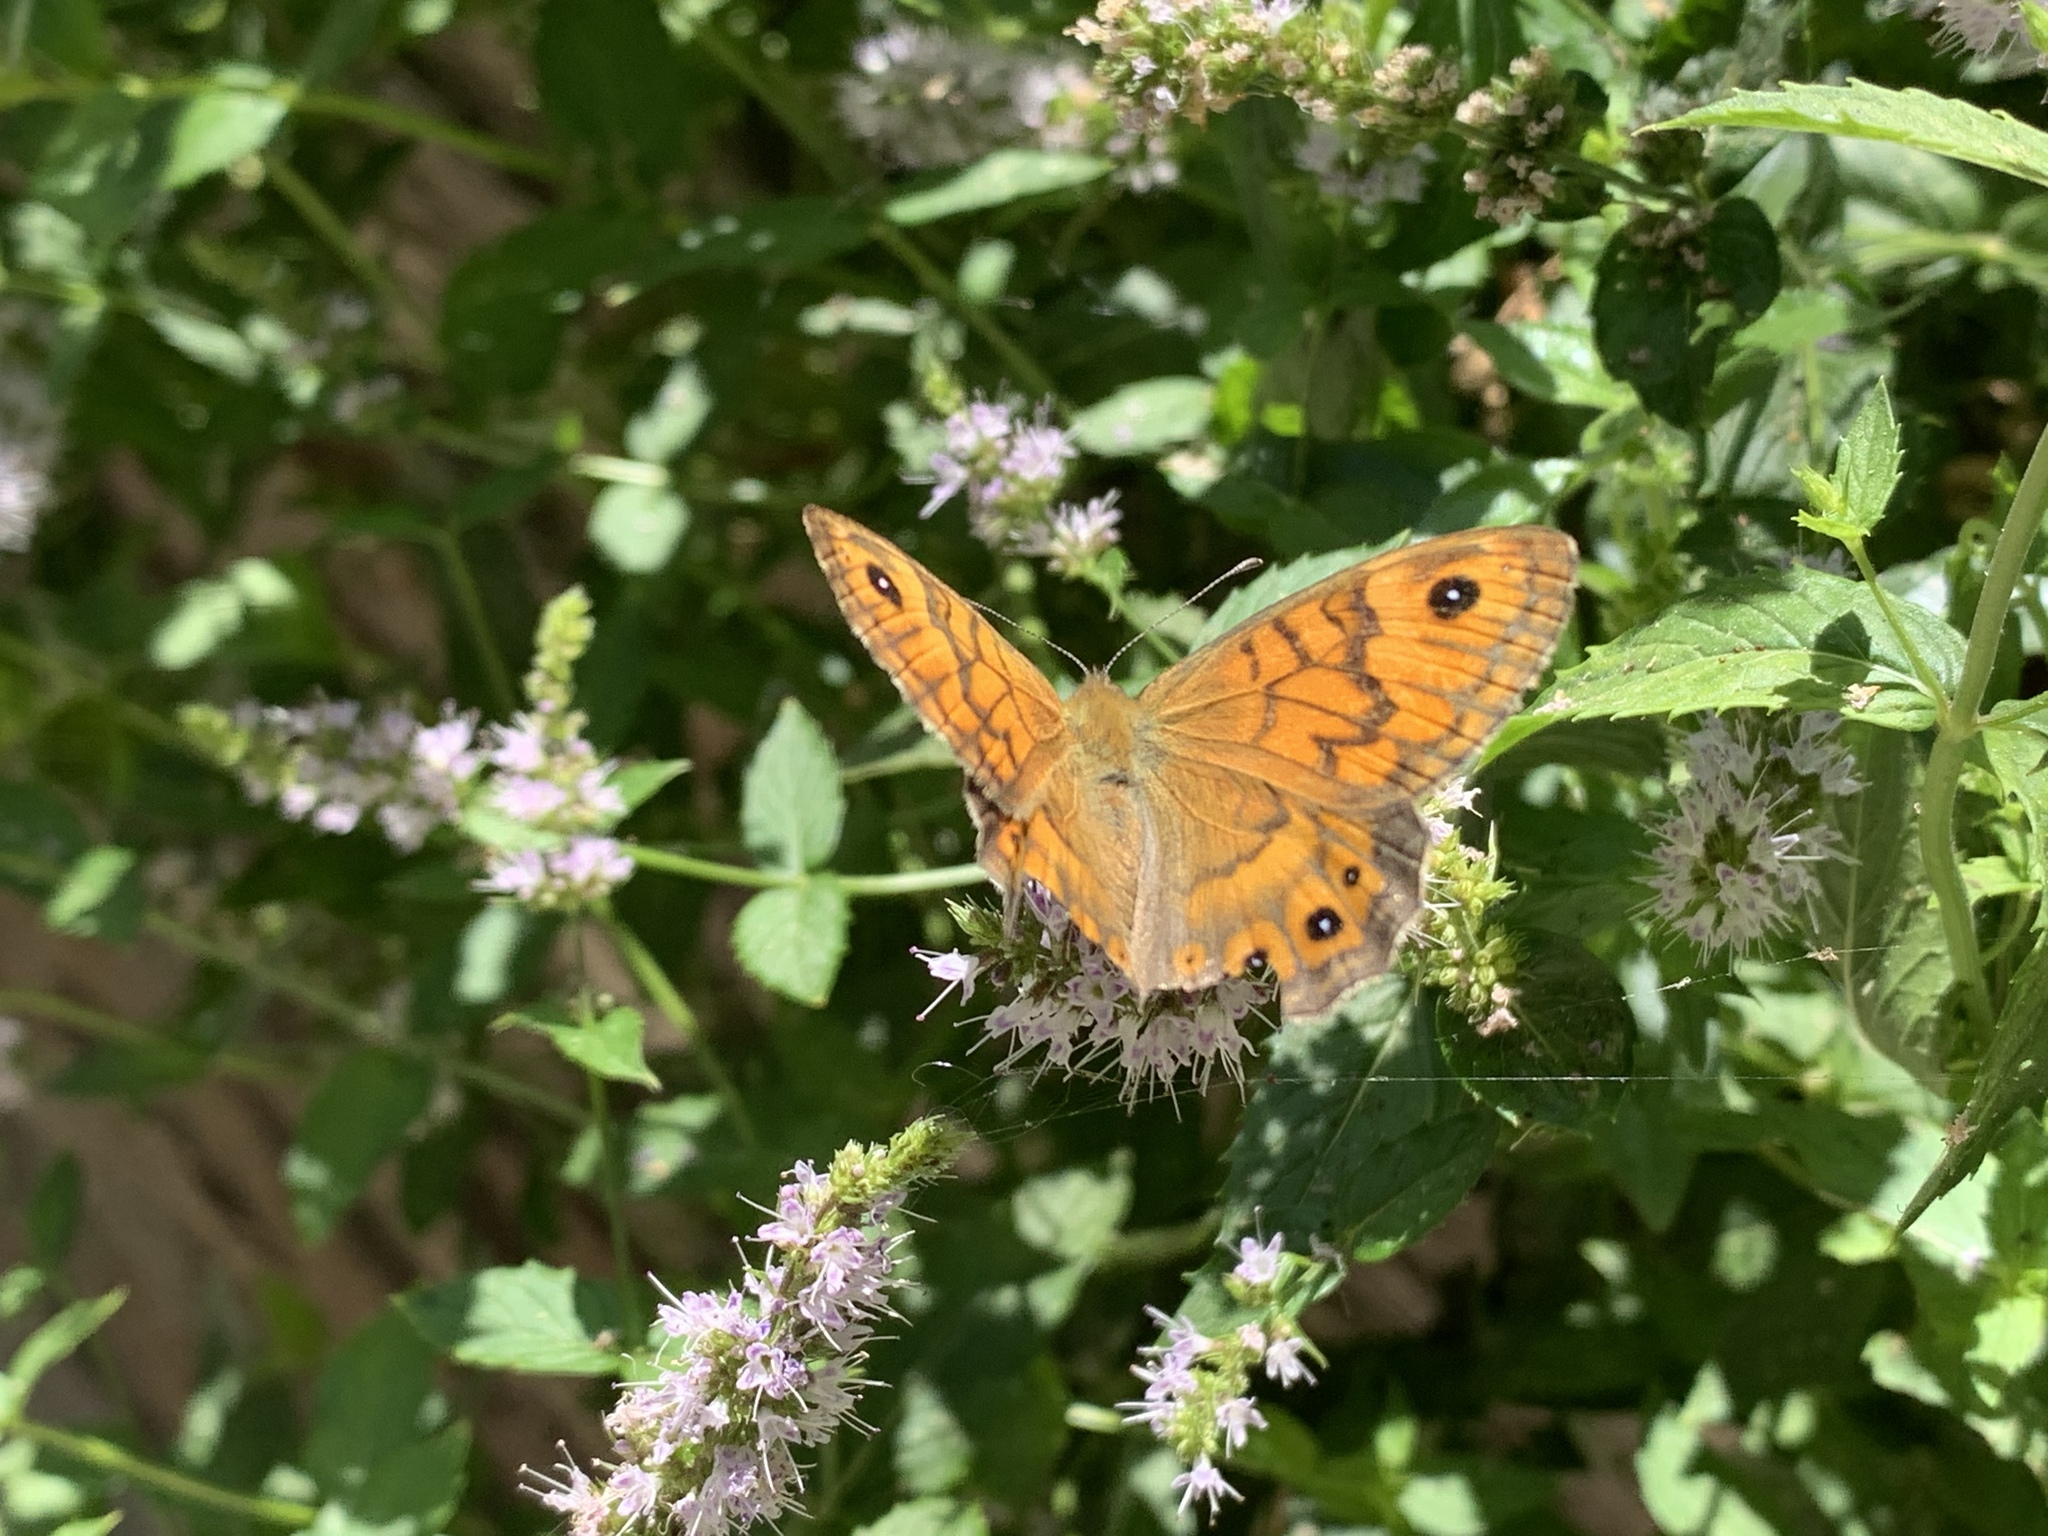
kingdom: Animalia
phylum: Arthropoda
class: Insecta
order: Lepidoptera
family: Nymphalidae
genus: Pararge
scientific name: Pararge Lasiommata megera
